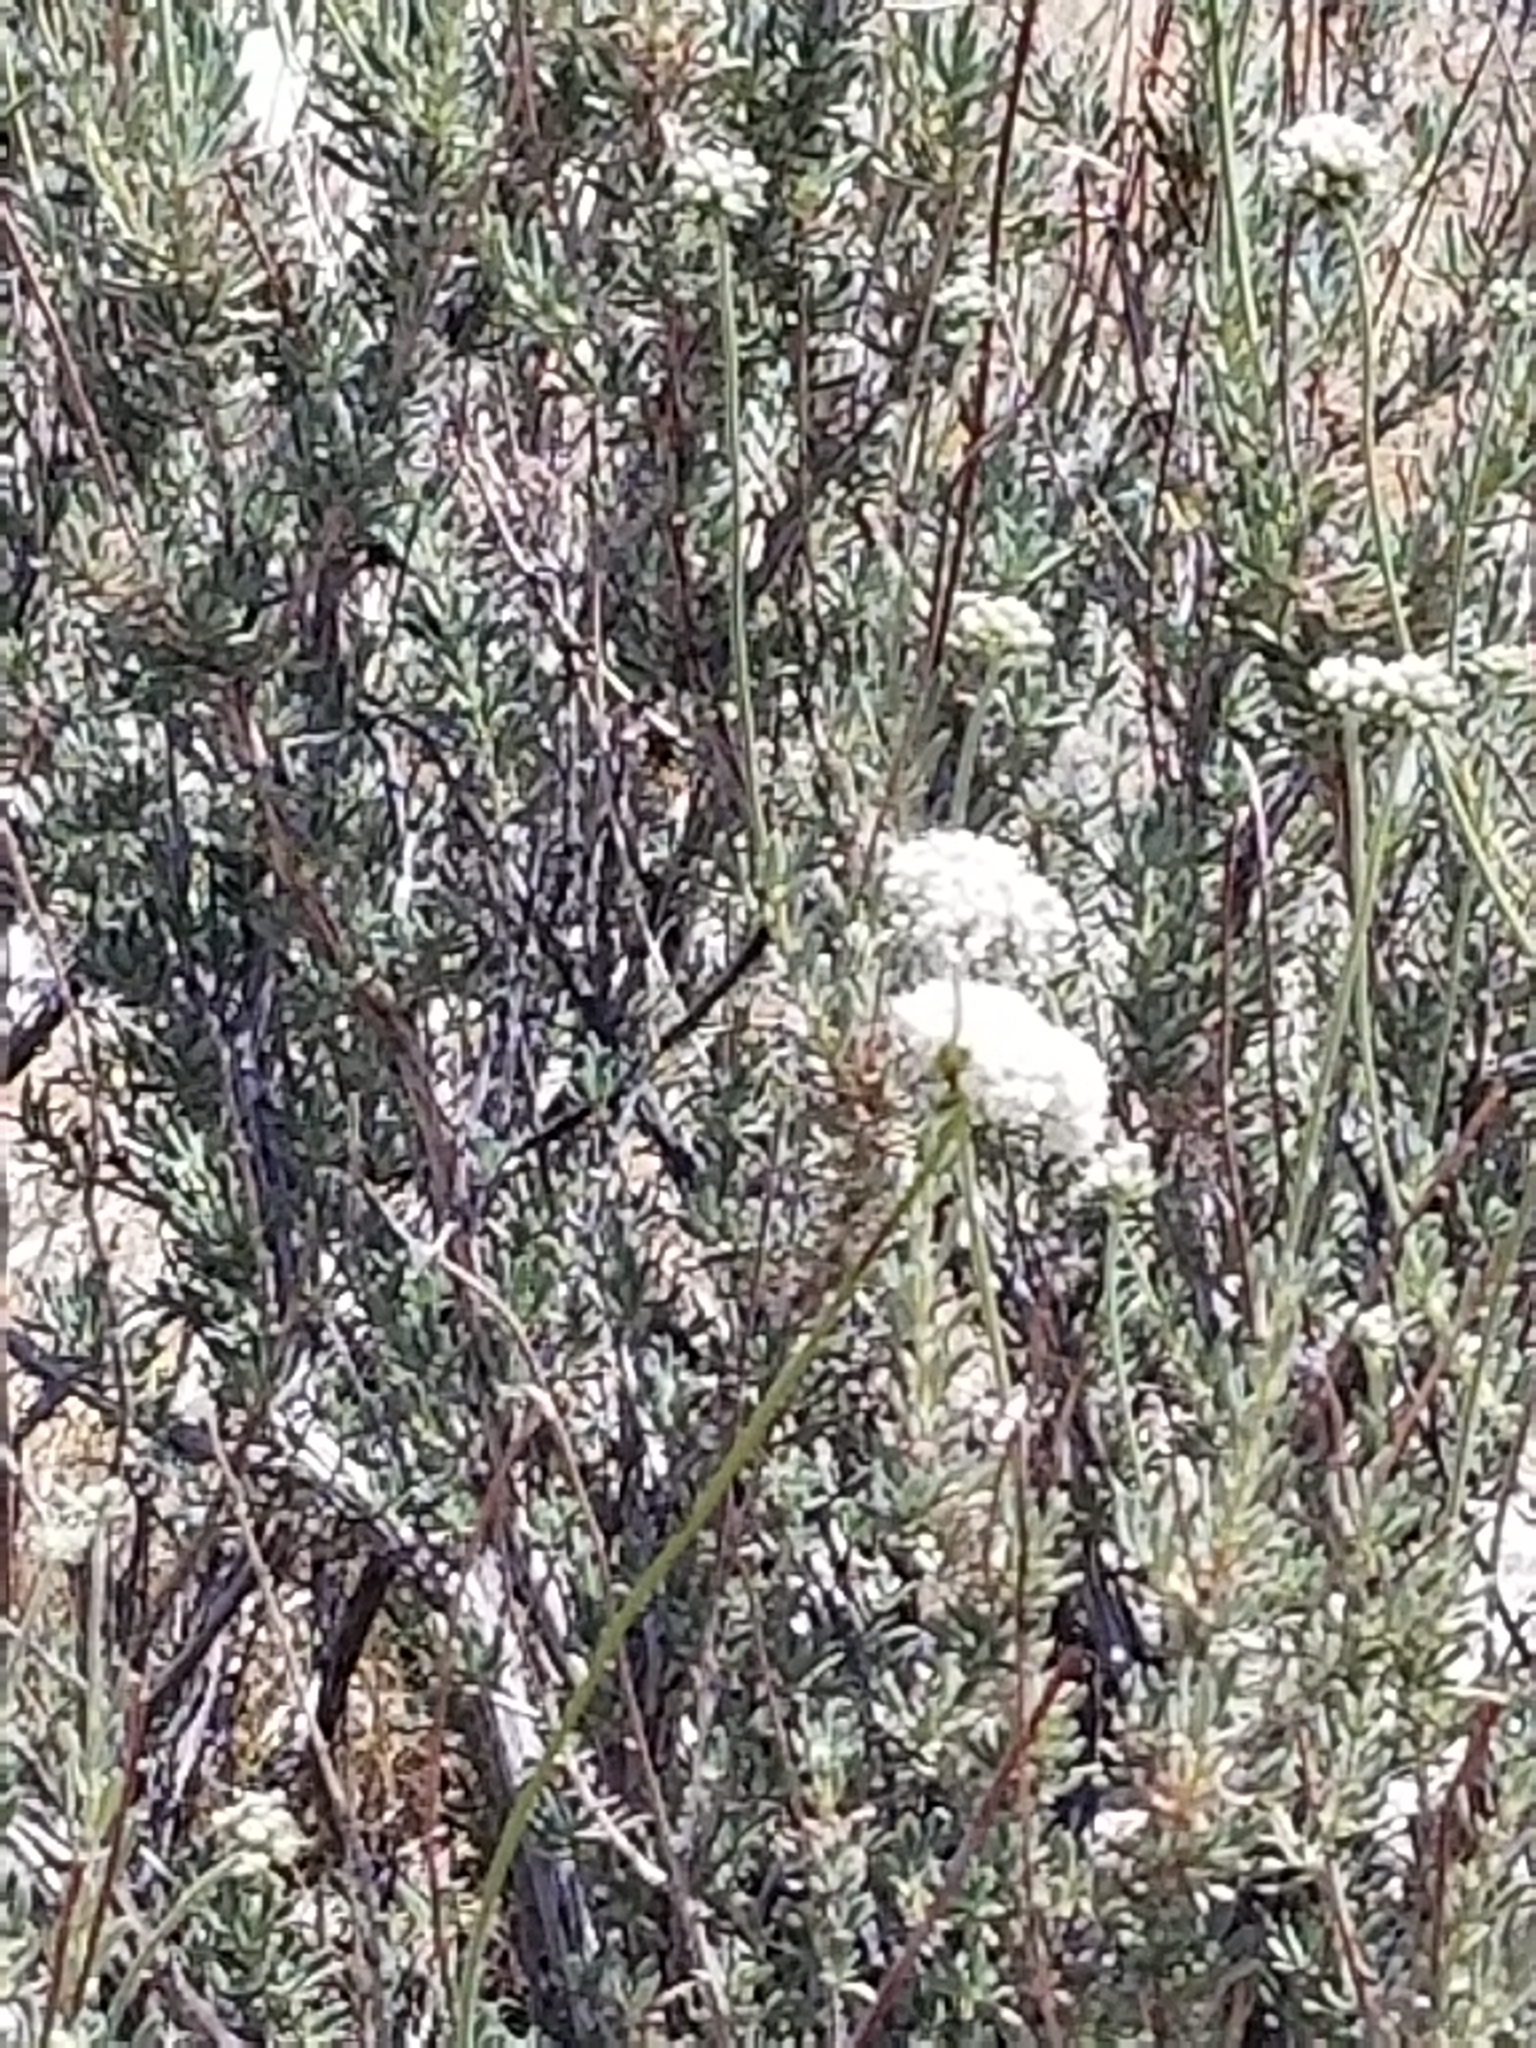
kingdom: Plantae
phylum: Tracheophyta
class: Magnoliopsida
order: Caryophyllales
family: Polygonaceae
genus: Eriogonum
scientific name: Eriogonum fasciculatum
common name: California wild buckwheat
